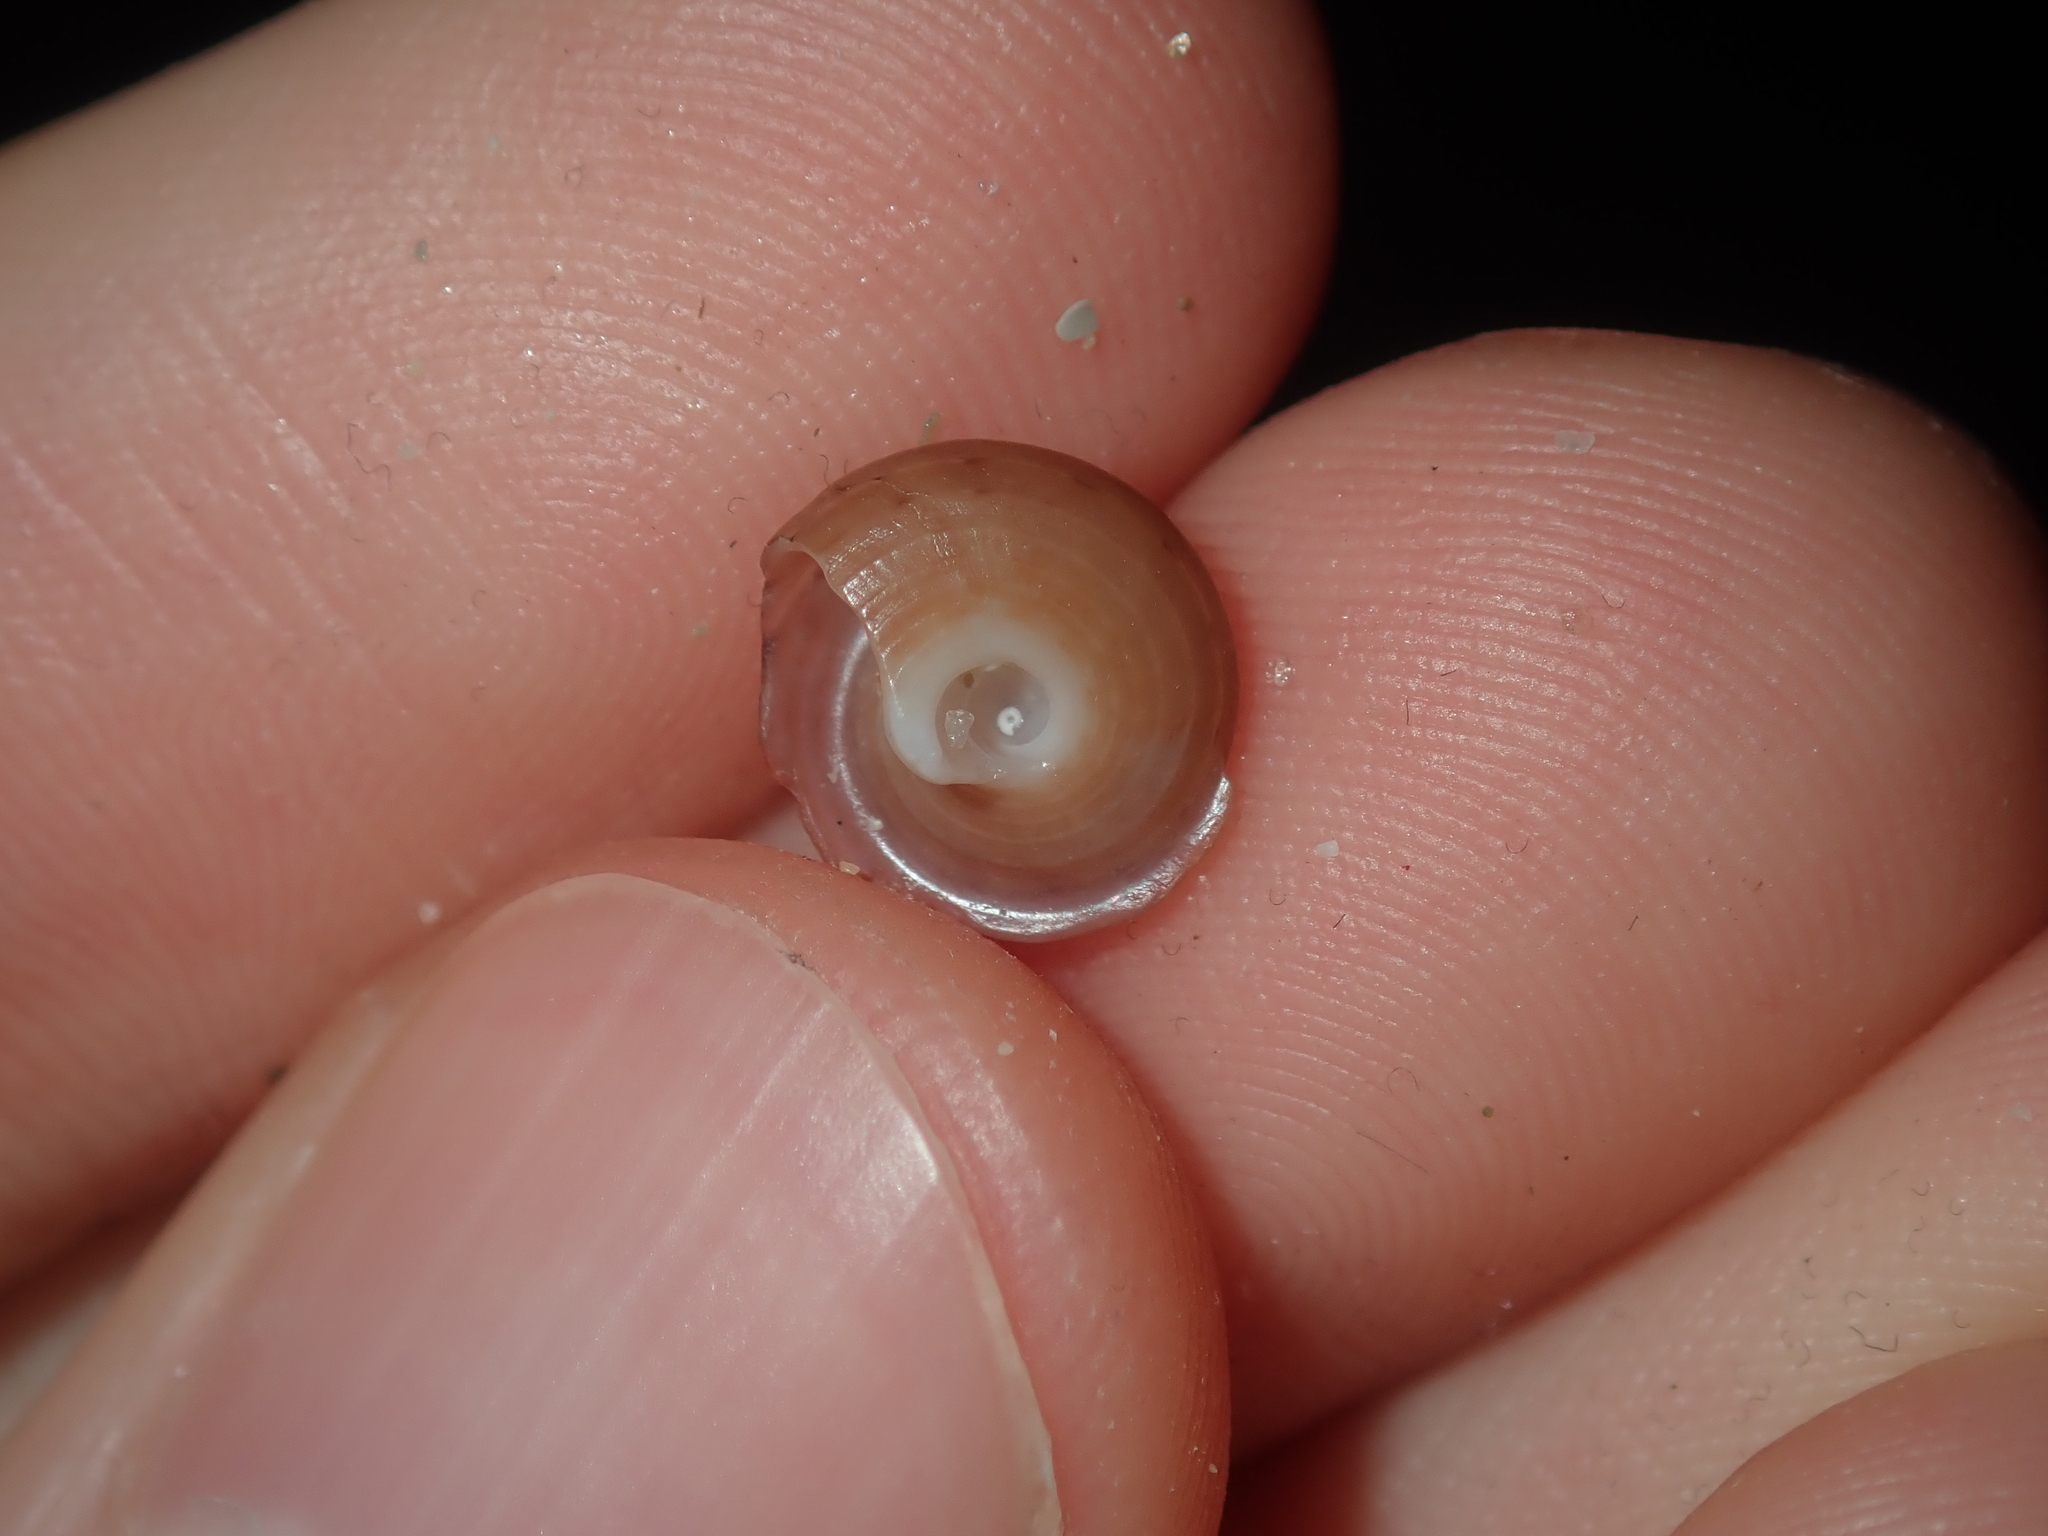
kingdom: Animalia
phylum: Mollusca
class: Gastropoda
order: Trochida
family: Trochidae
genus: Clanculus
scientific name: Clanculus consobrinus
